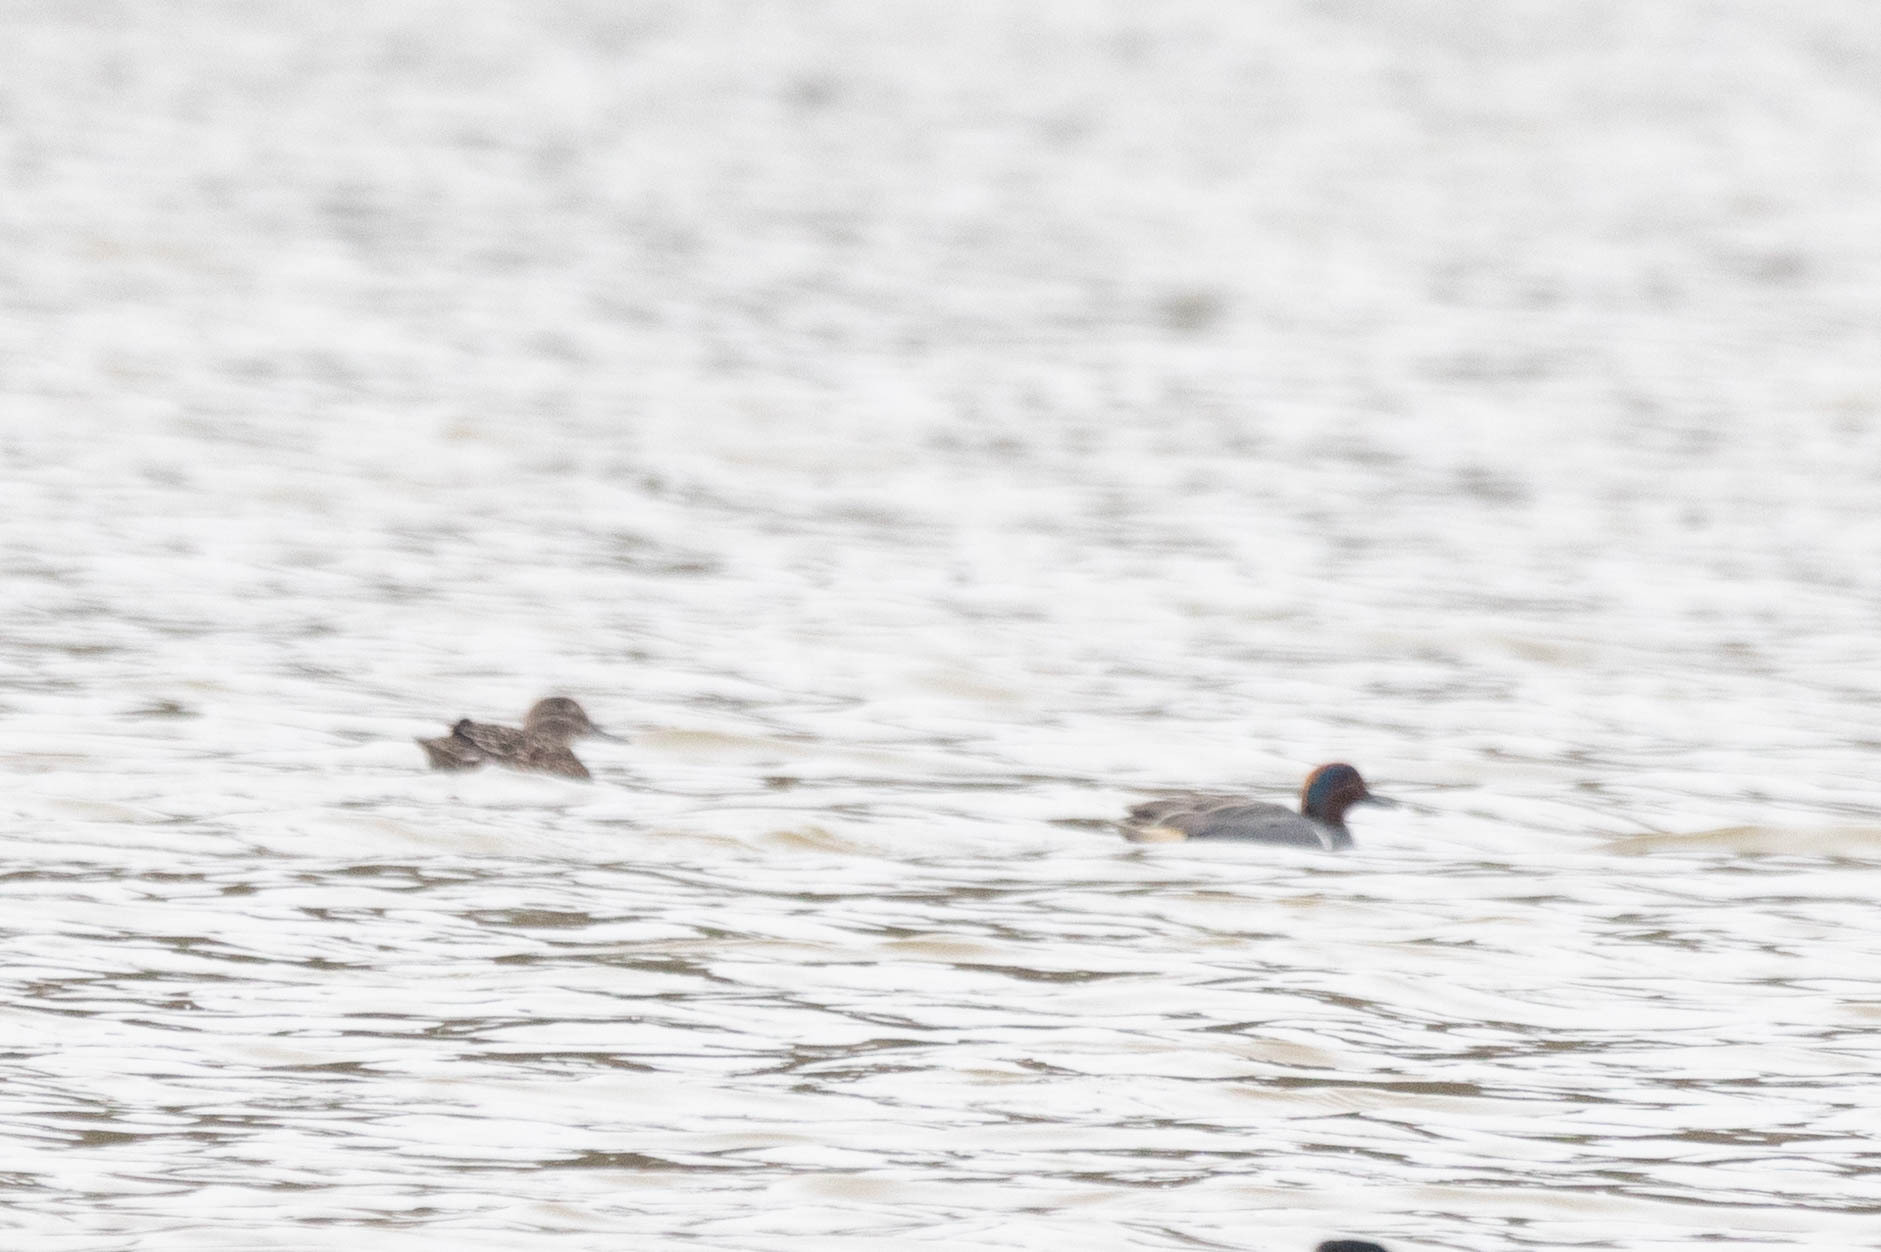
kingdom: Animalia
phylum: Chordata
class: Aves
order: Anseriformes
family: Anatidae
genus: Anas
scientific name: Anas carolinensis
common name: Green-winged teal
